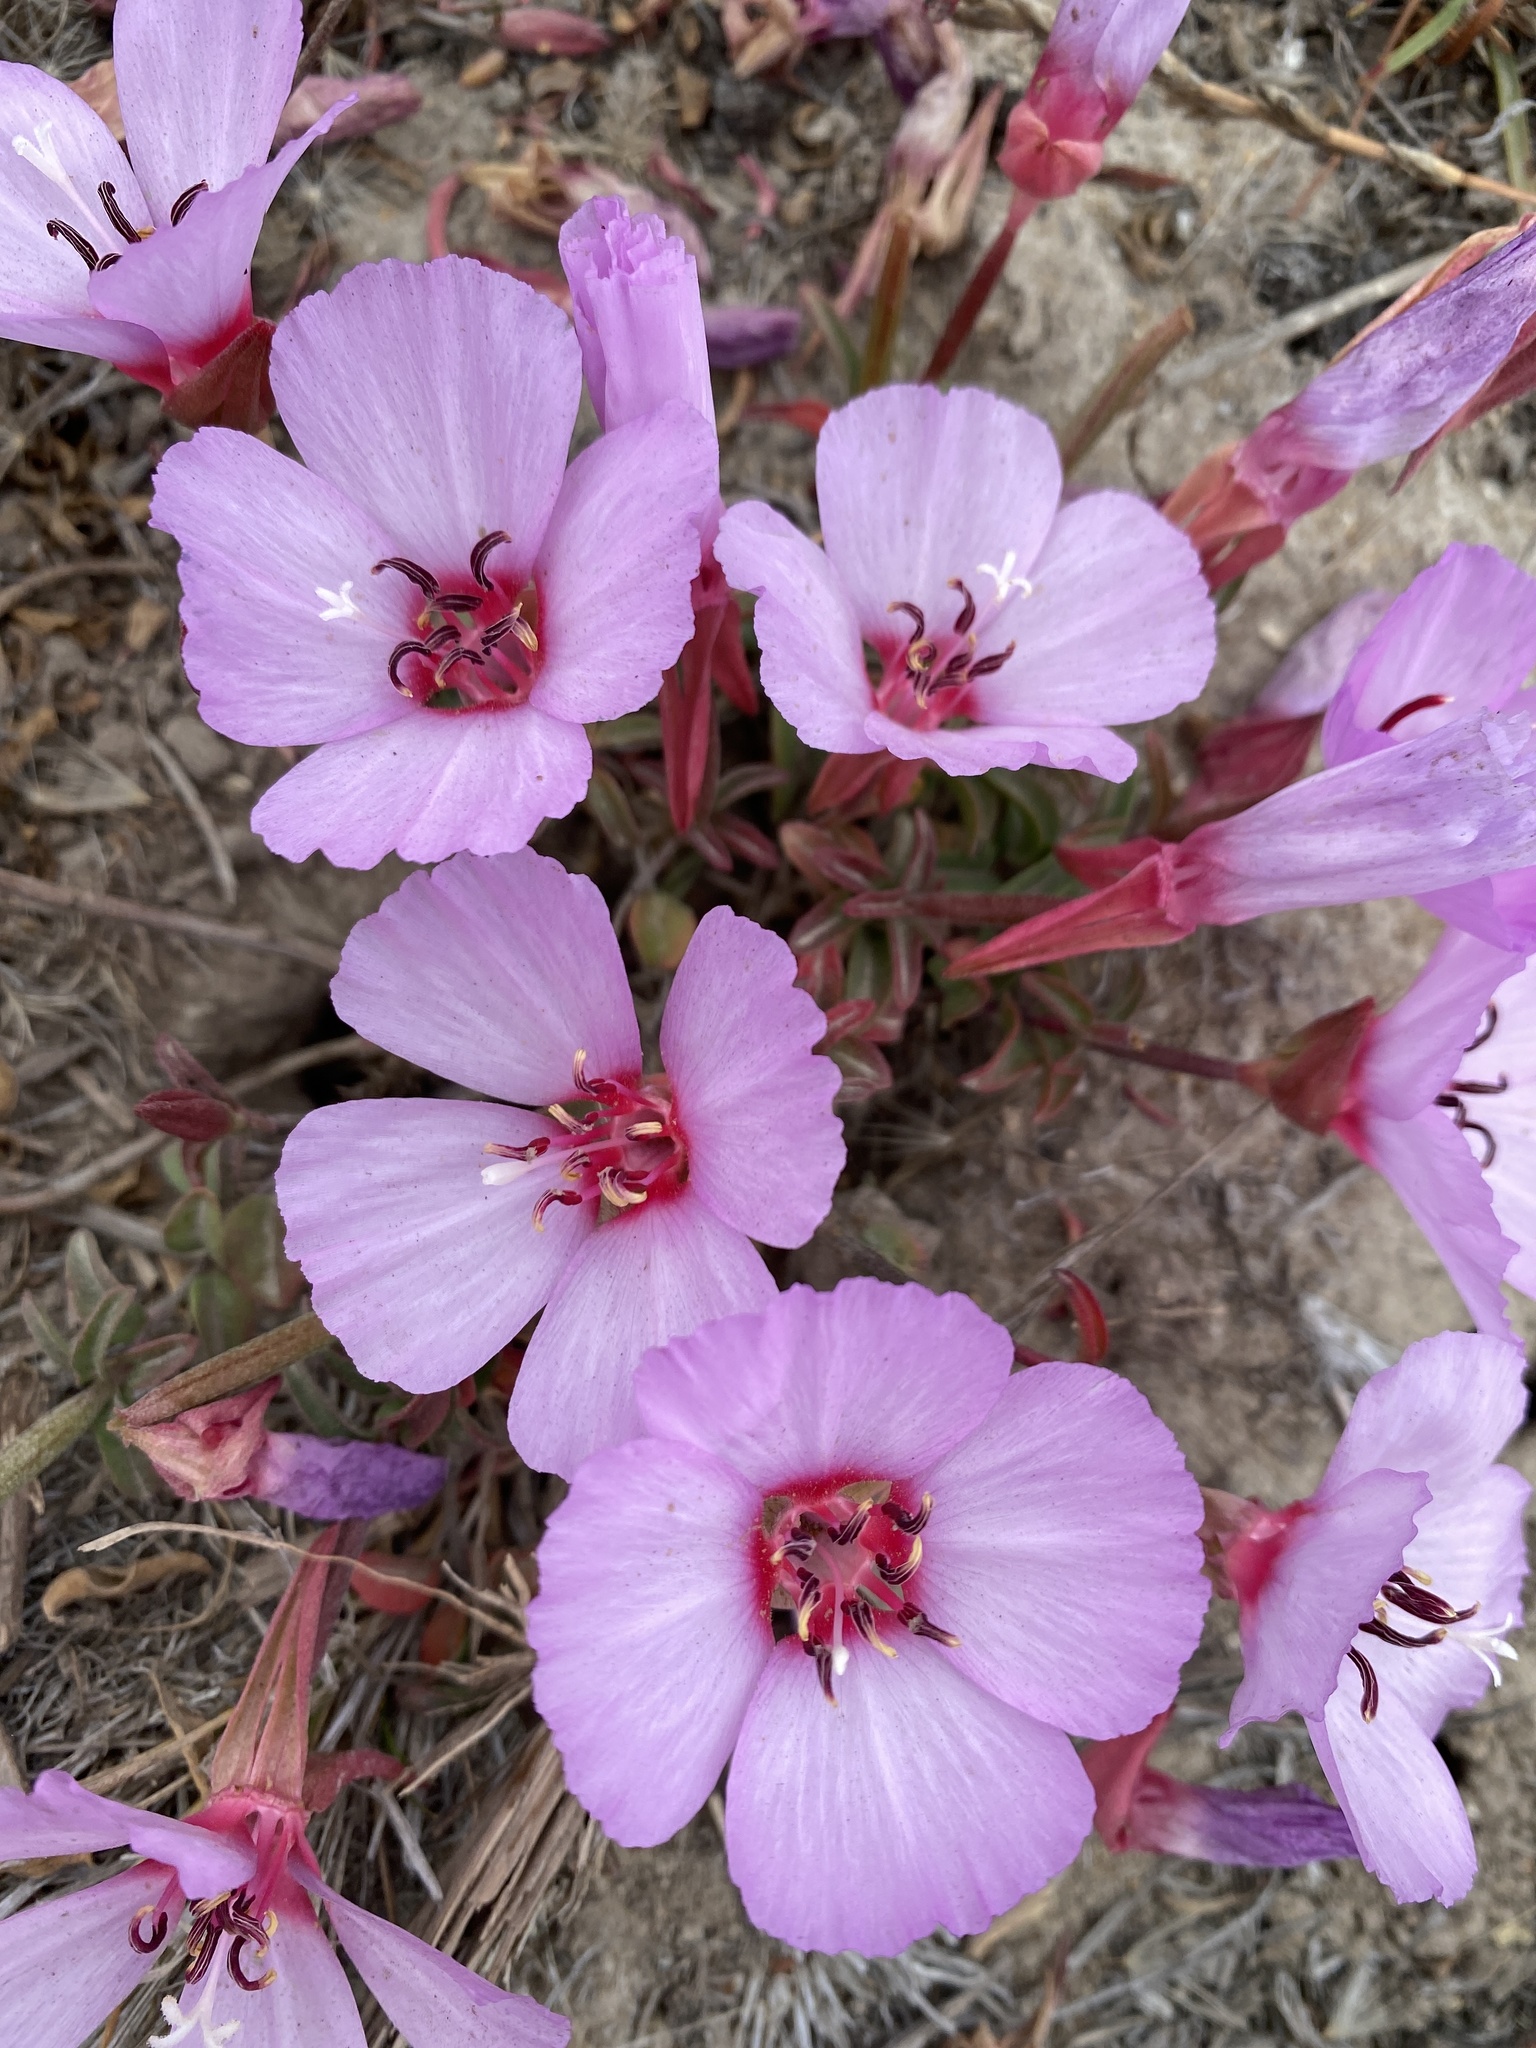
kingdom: Plantae
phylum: Tracheophyta
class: Magnoliopsida
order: Myrtales
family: Onagraceae
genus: Clarkia
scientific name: Clarkia rubicunda
